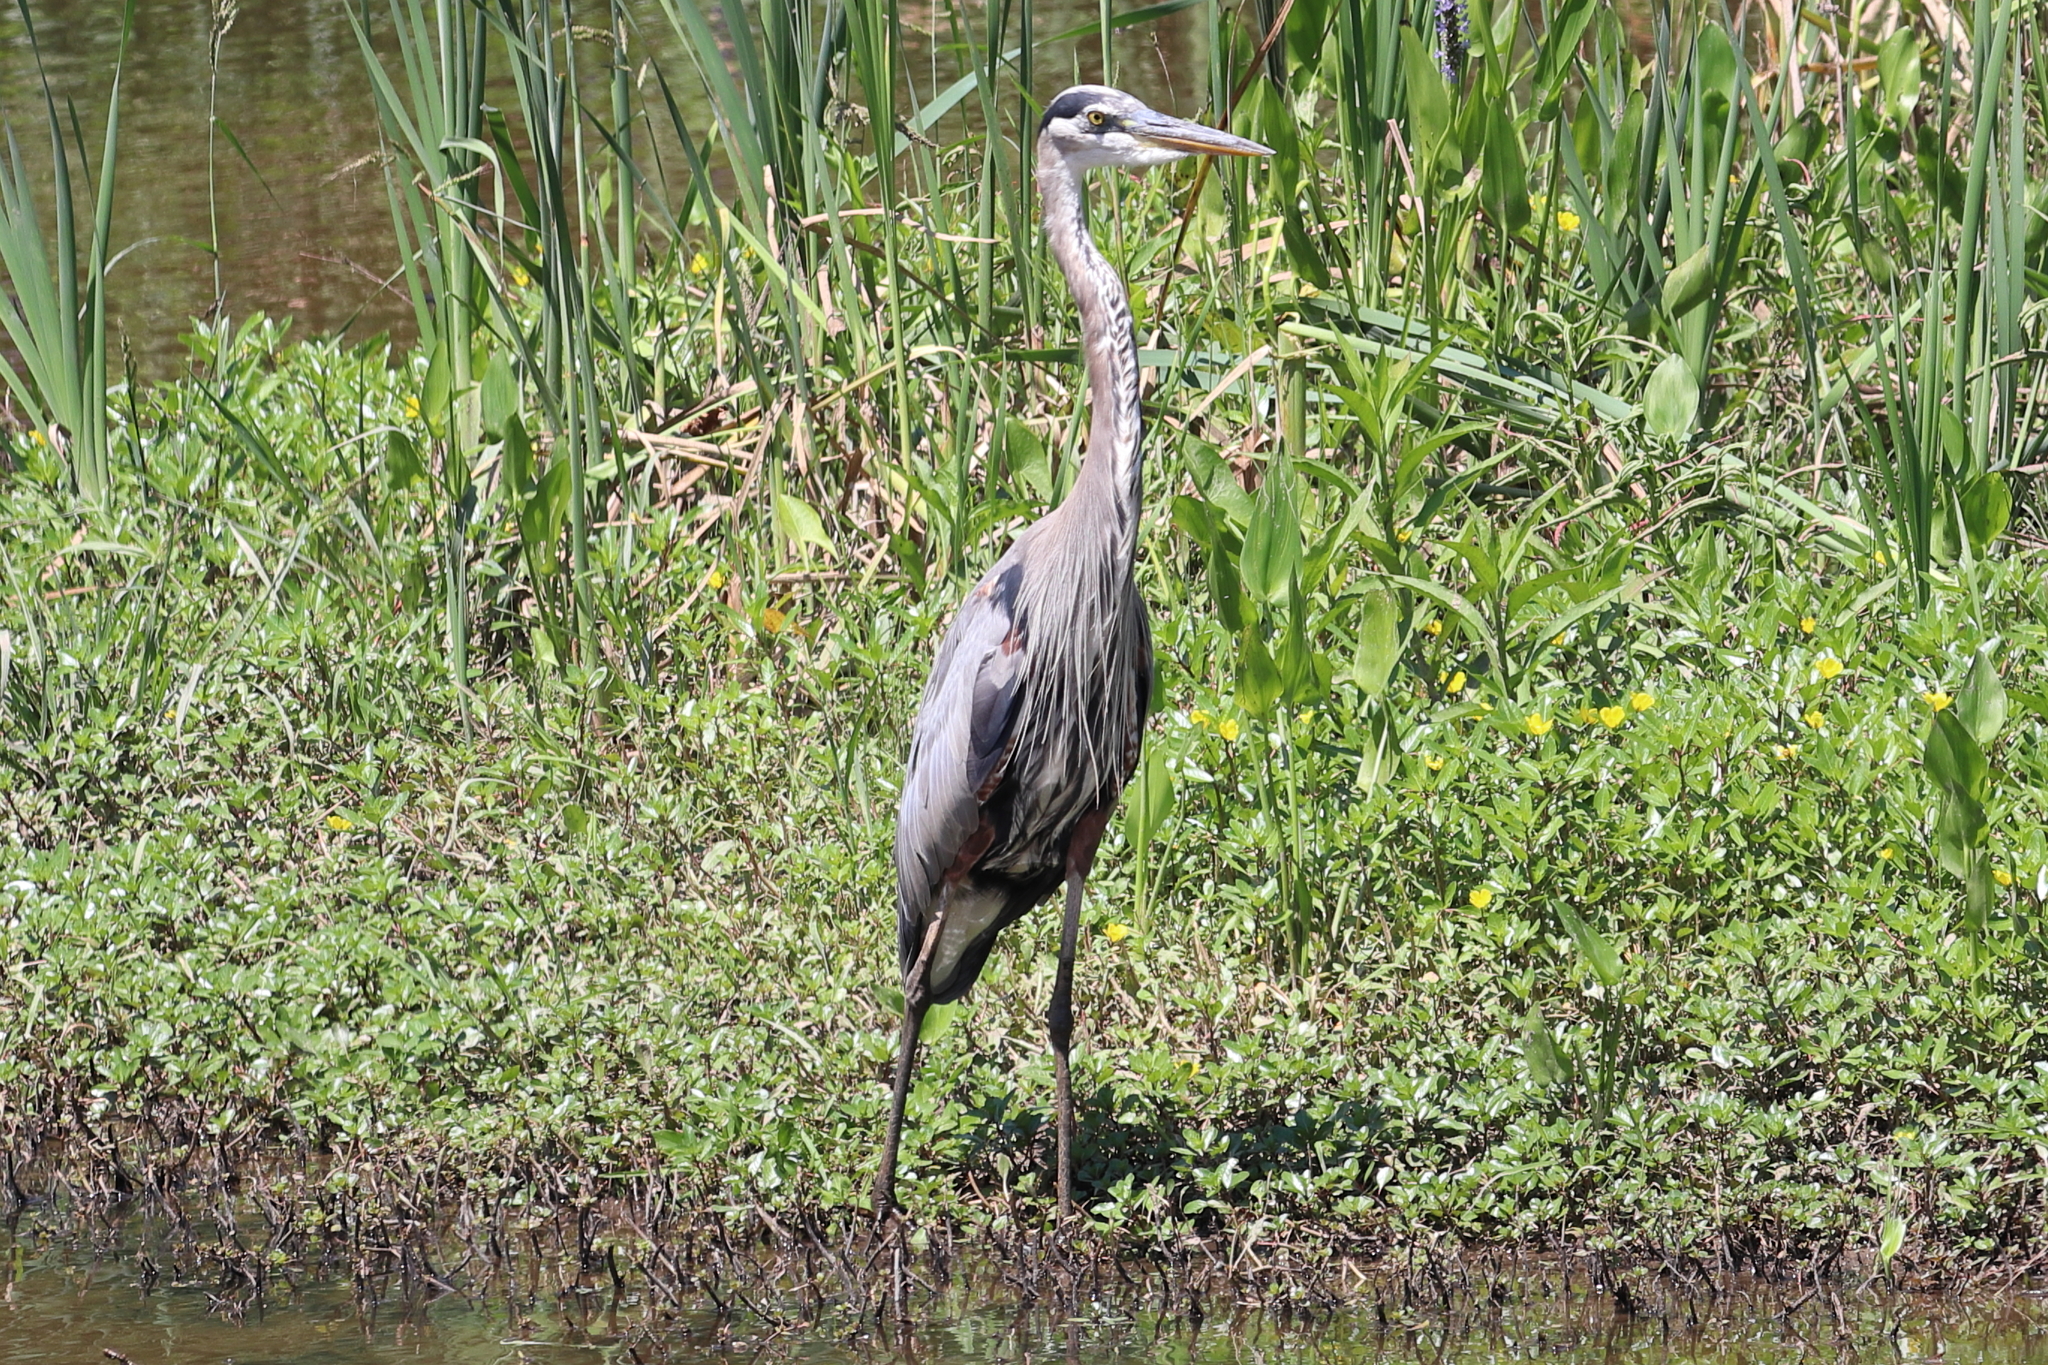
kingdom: Animalia
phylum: Chordata
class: Aves
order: Pelecaniformes
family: Ardeidae
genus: Ardea
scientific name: Ardea herodias
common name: Great blue heron
